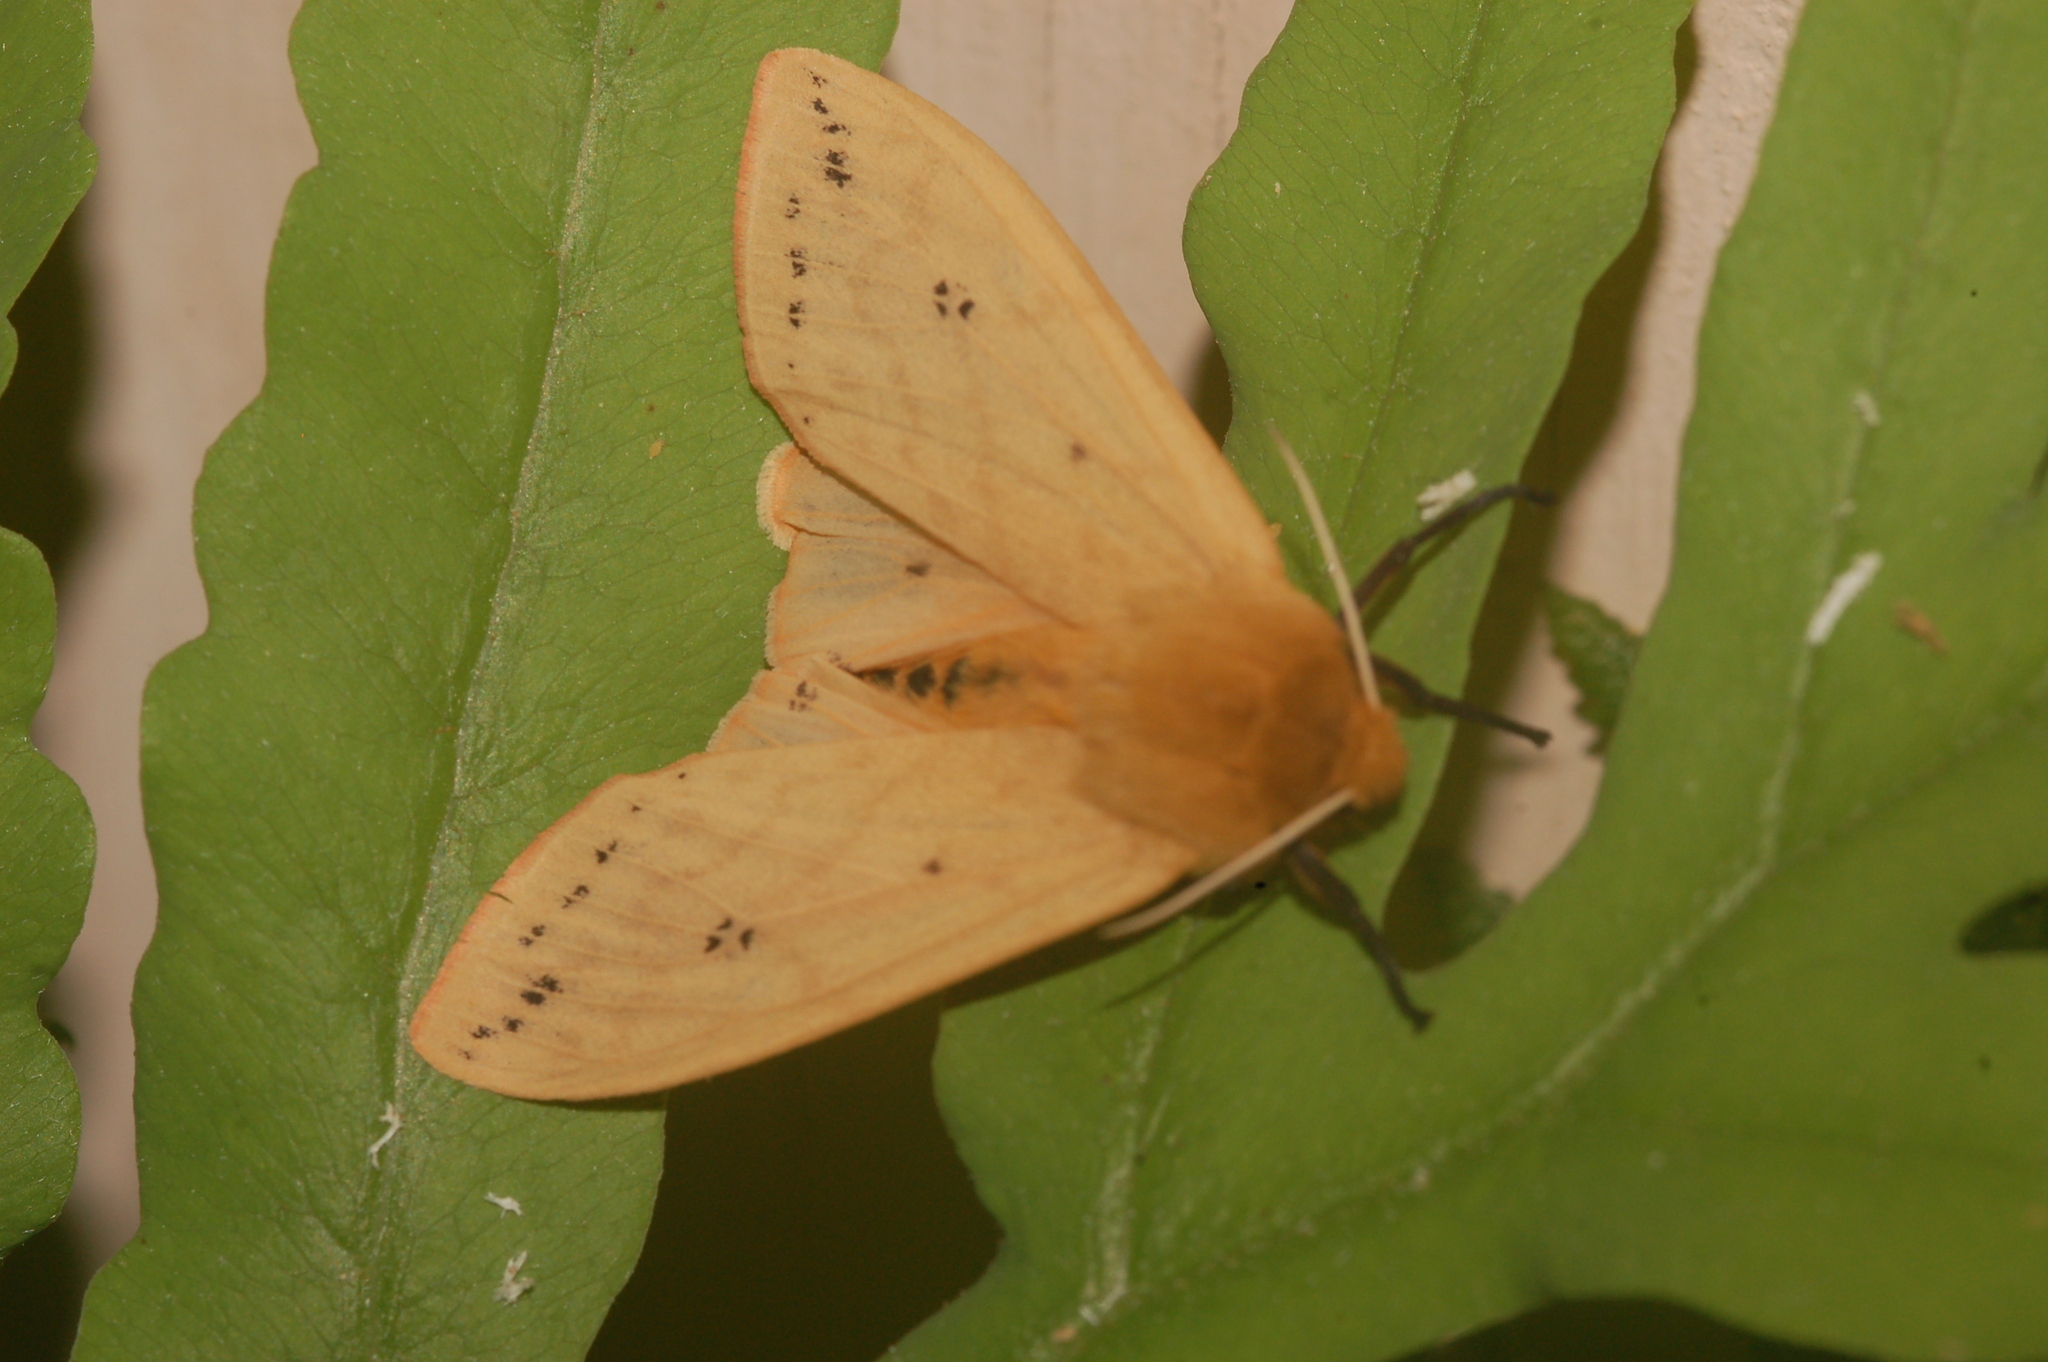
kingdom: Animalia
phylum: Arthropoda
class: Insecta
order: Lepidoptera
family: Erebidae
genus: Pyrrharctia
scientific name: Pyrrharctia isabella
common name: Isabella tiger moth
